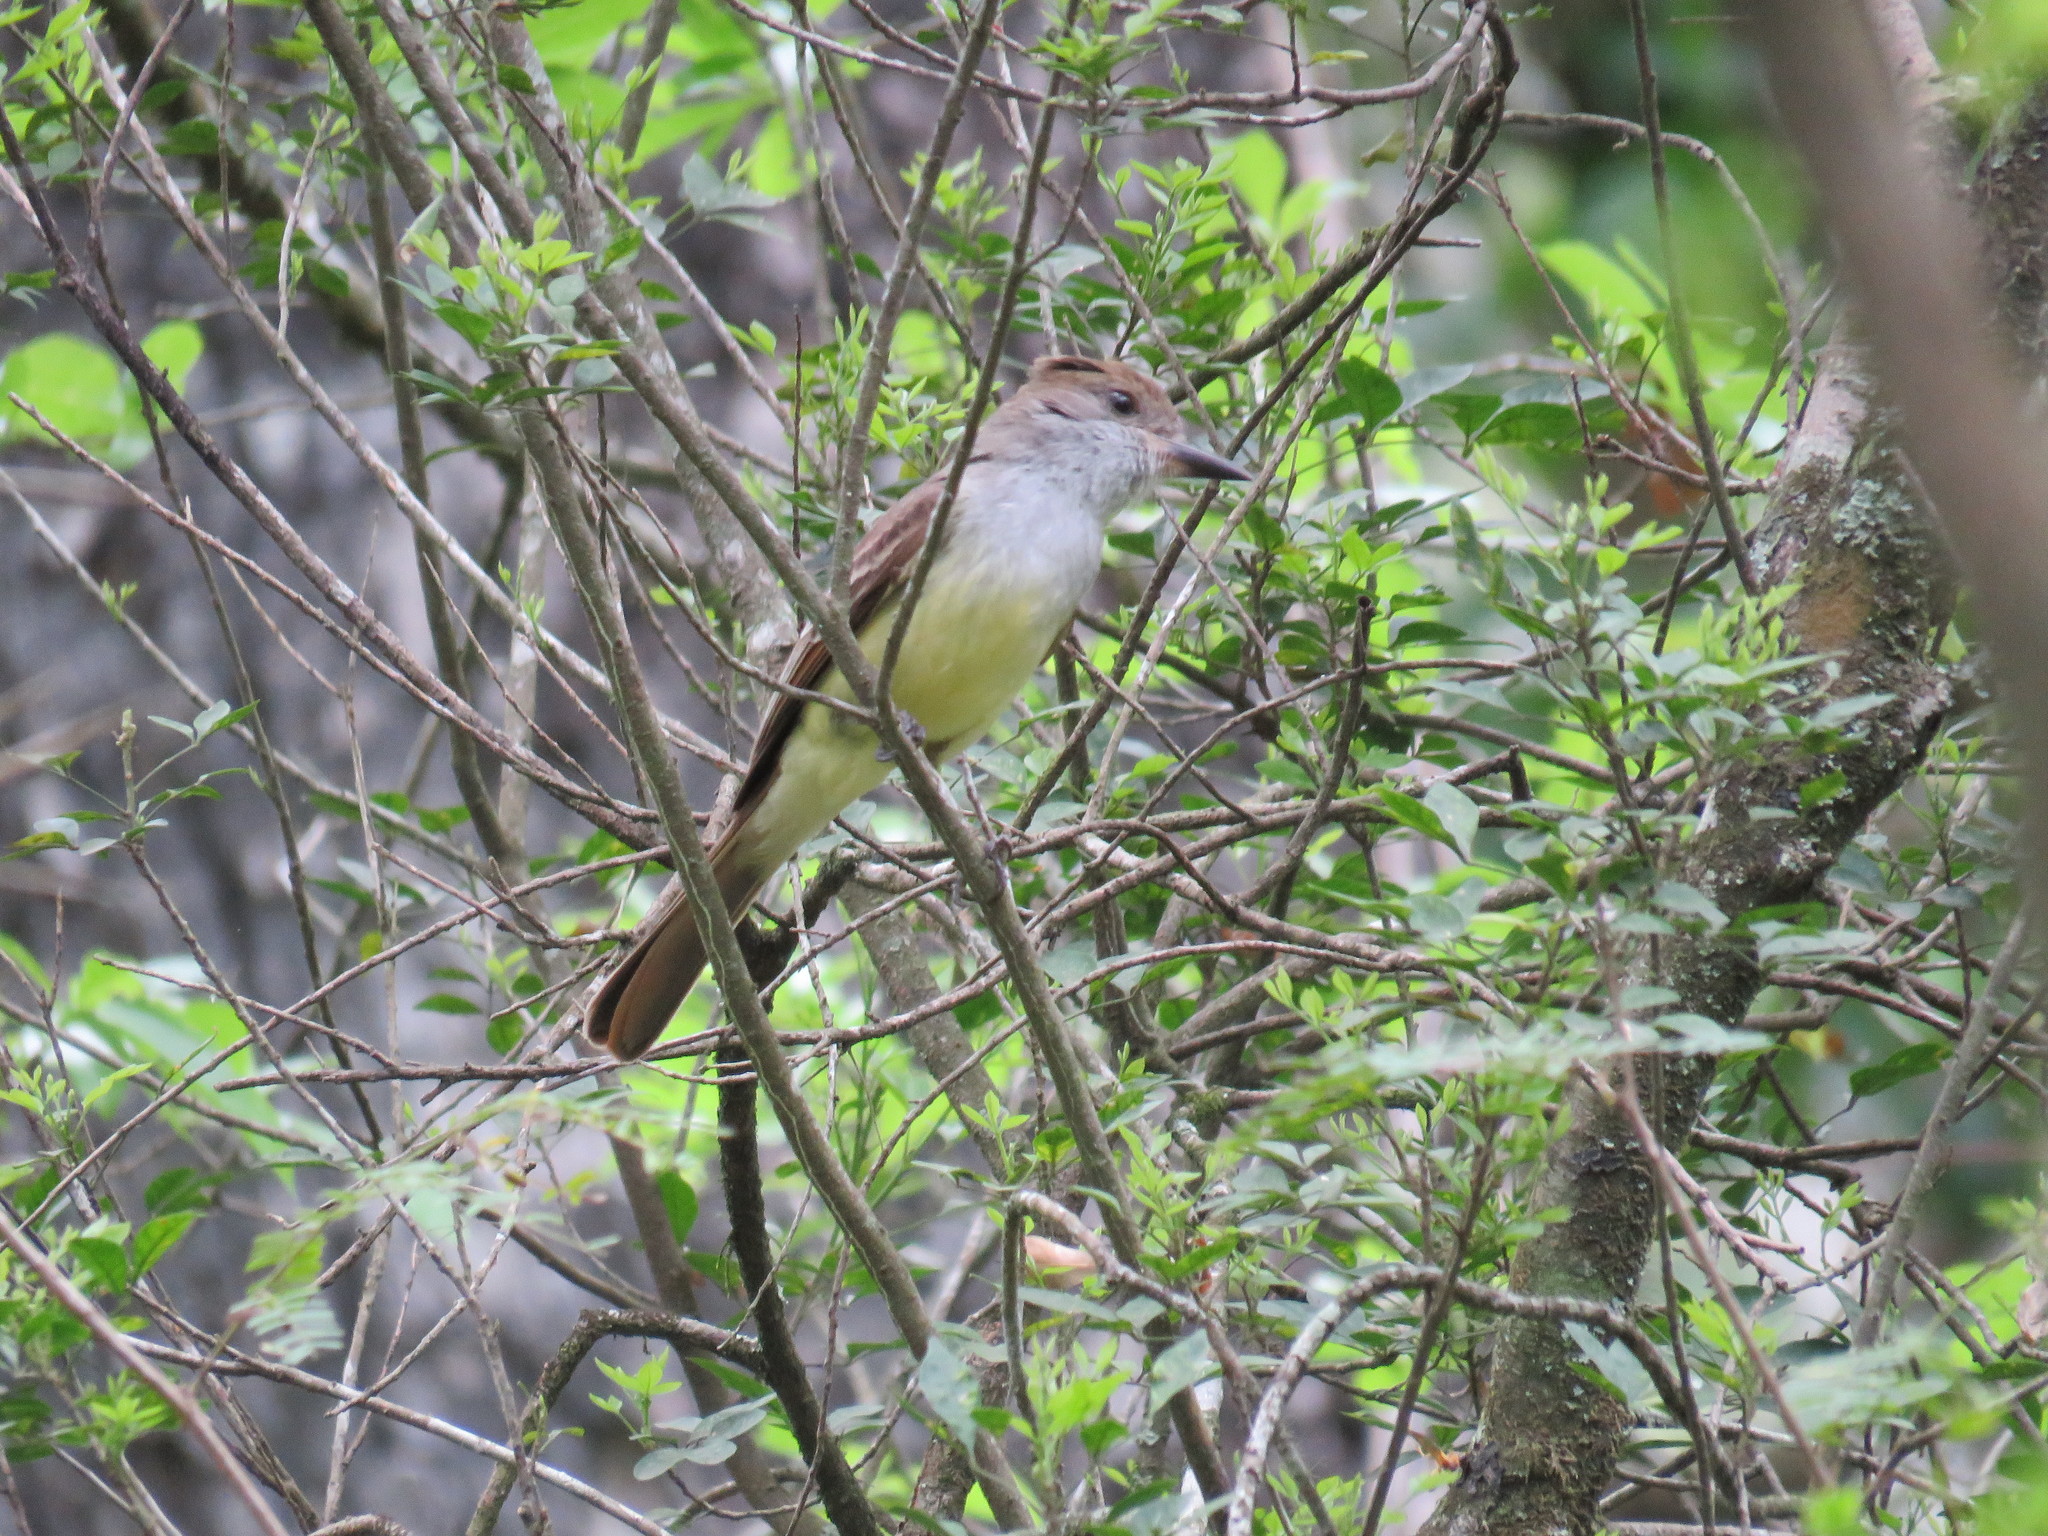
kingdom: Animalia
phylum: Chordata
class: Aves
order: Passeriformes
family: Tyrannidae
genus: Myiarchus
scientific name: Myiarchus tyrannulus
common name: Brown-crested flycatcher
